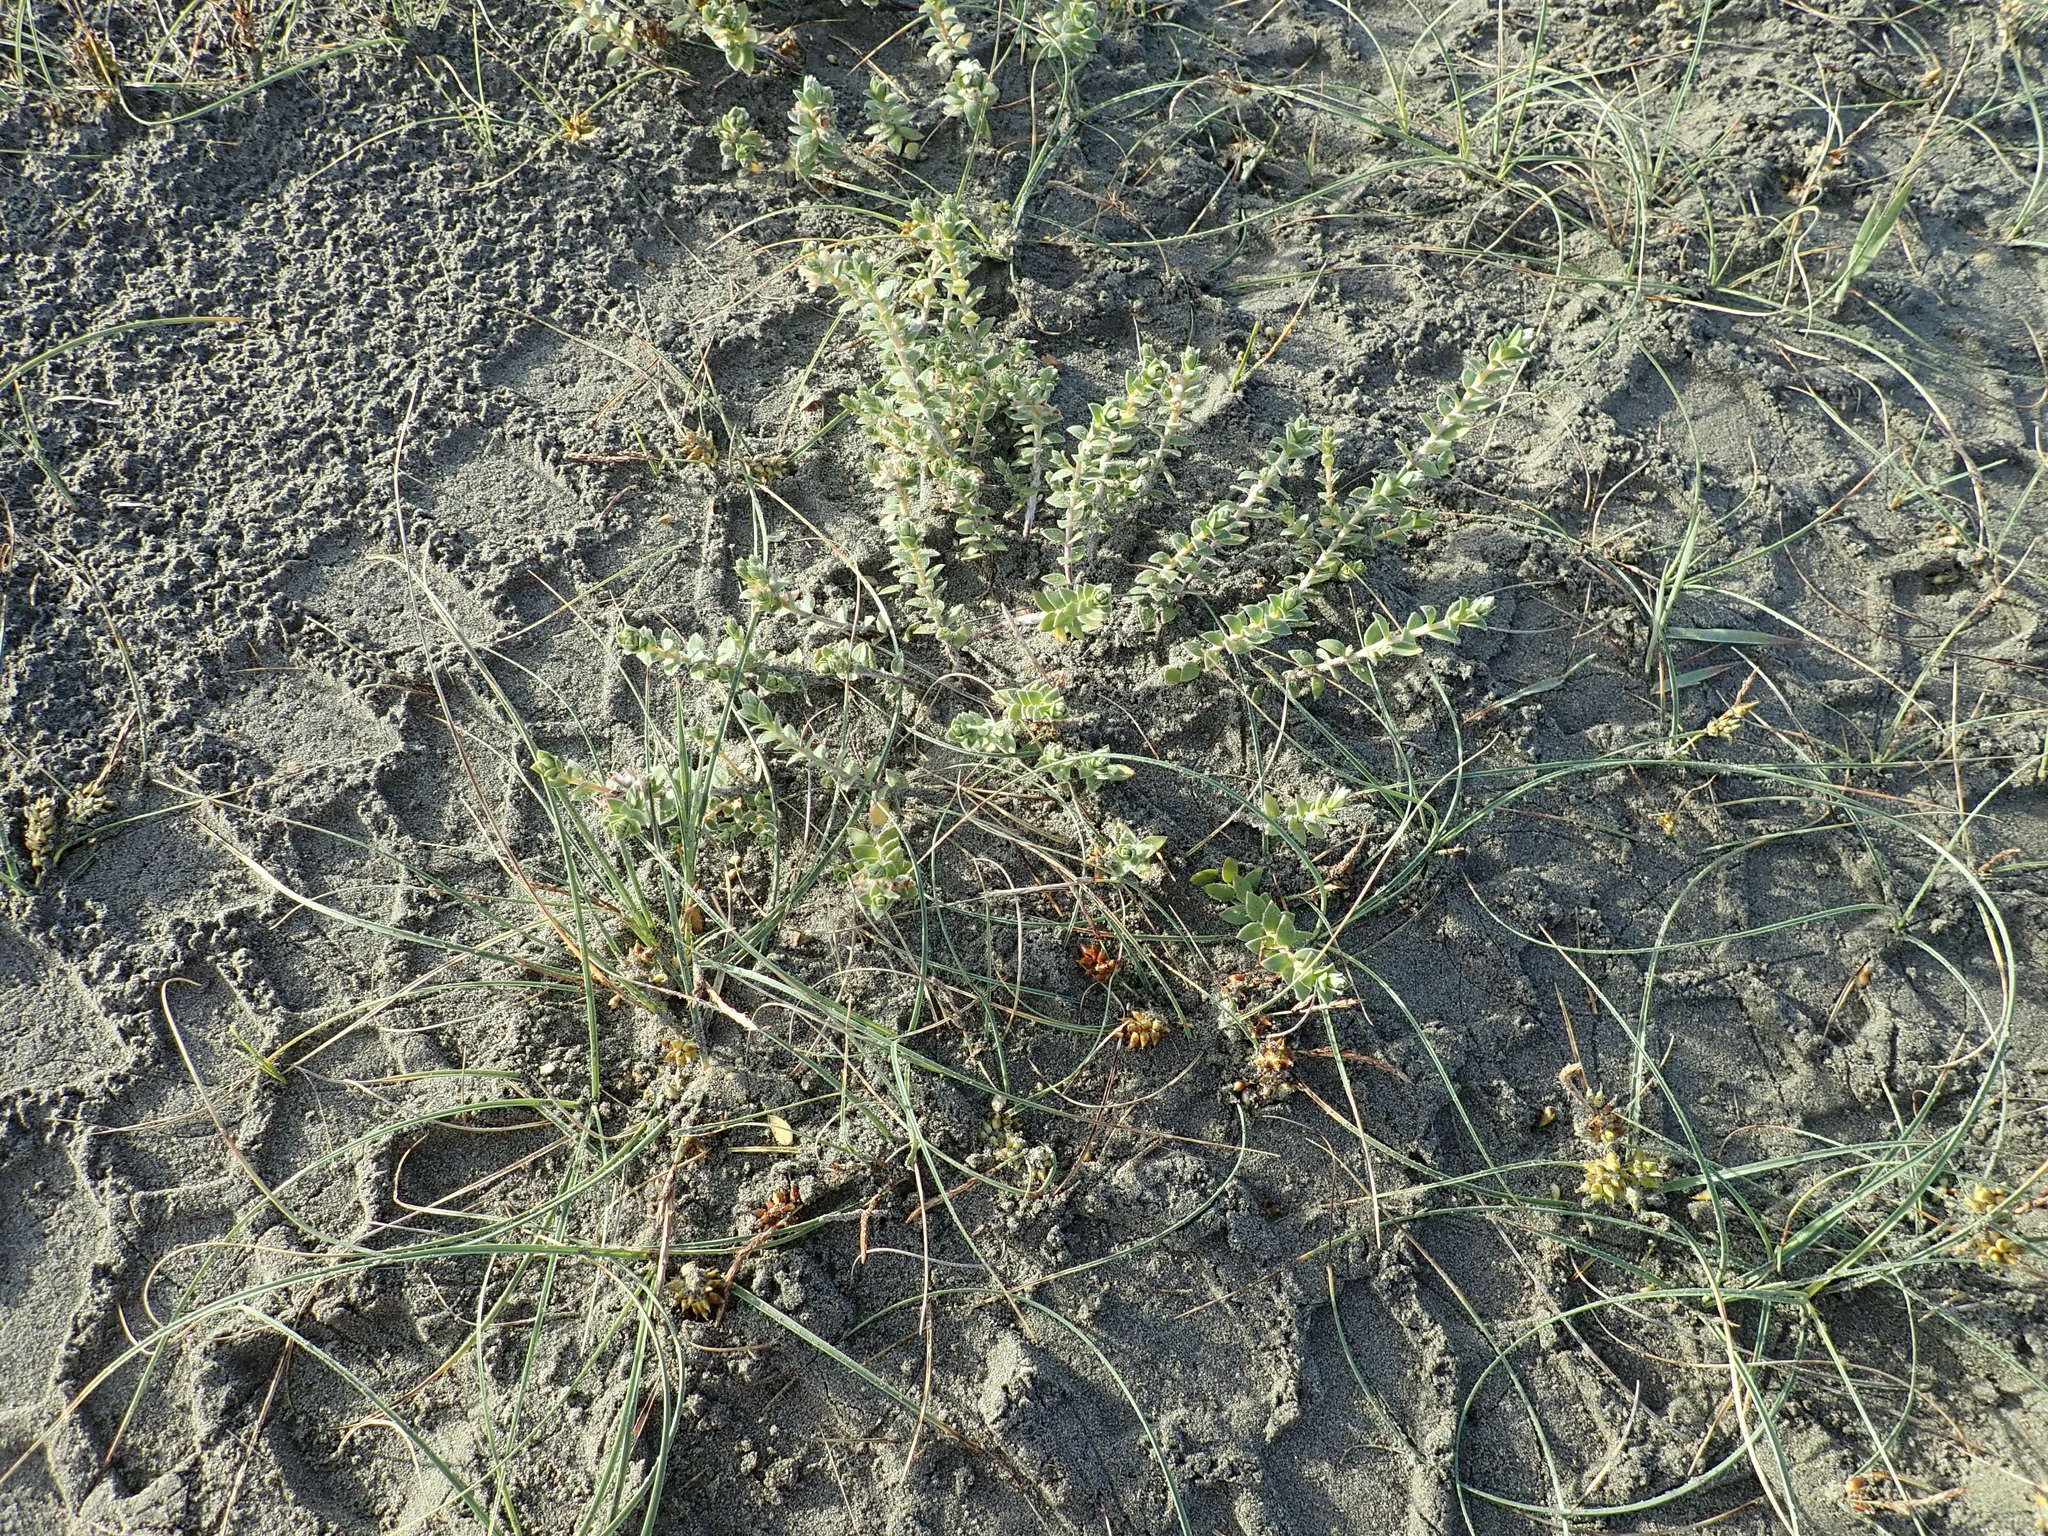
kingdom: Plantae
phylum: Tracheophyta
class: Magnoliopsida
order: Malvales
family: Thymelaeaceae
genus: Pimelea
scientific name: Pimelea villosa
